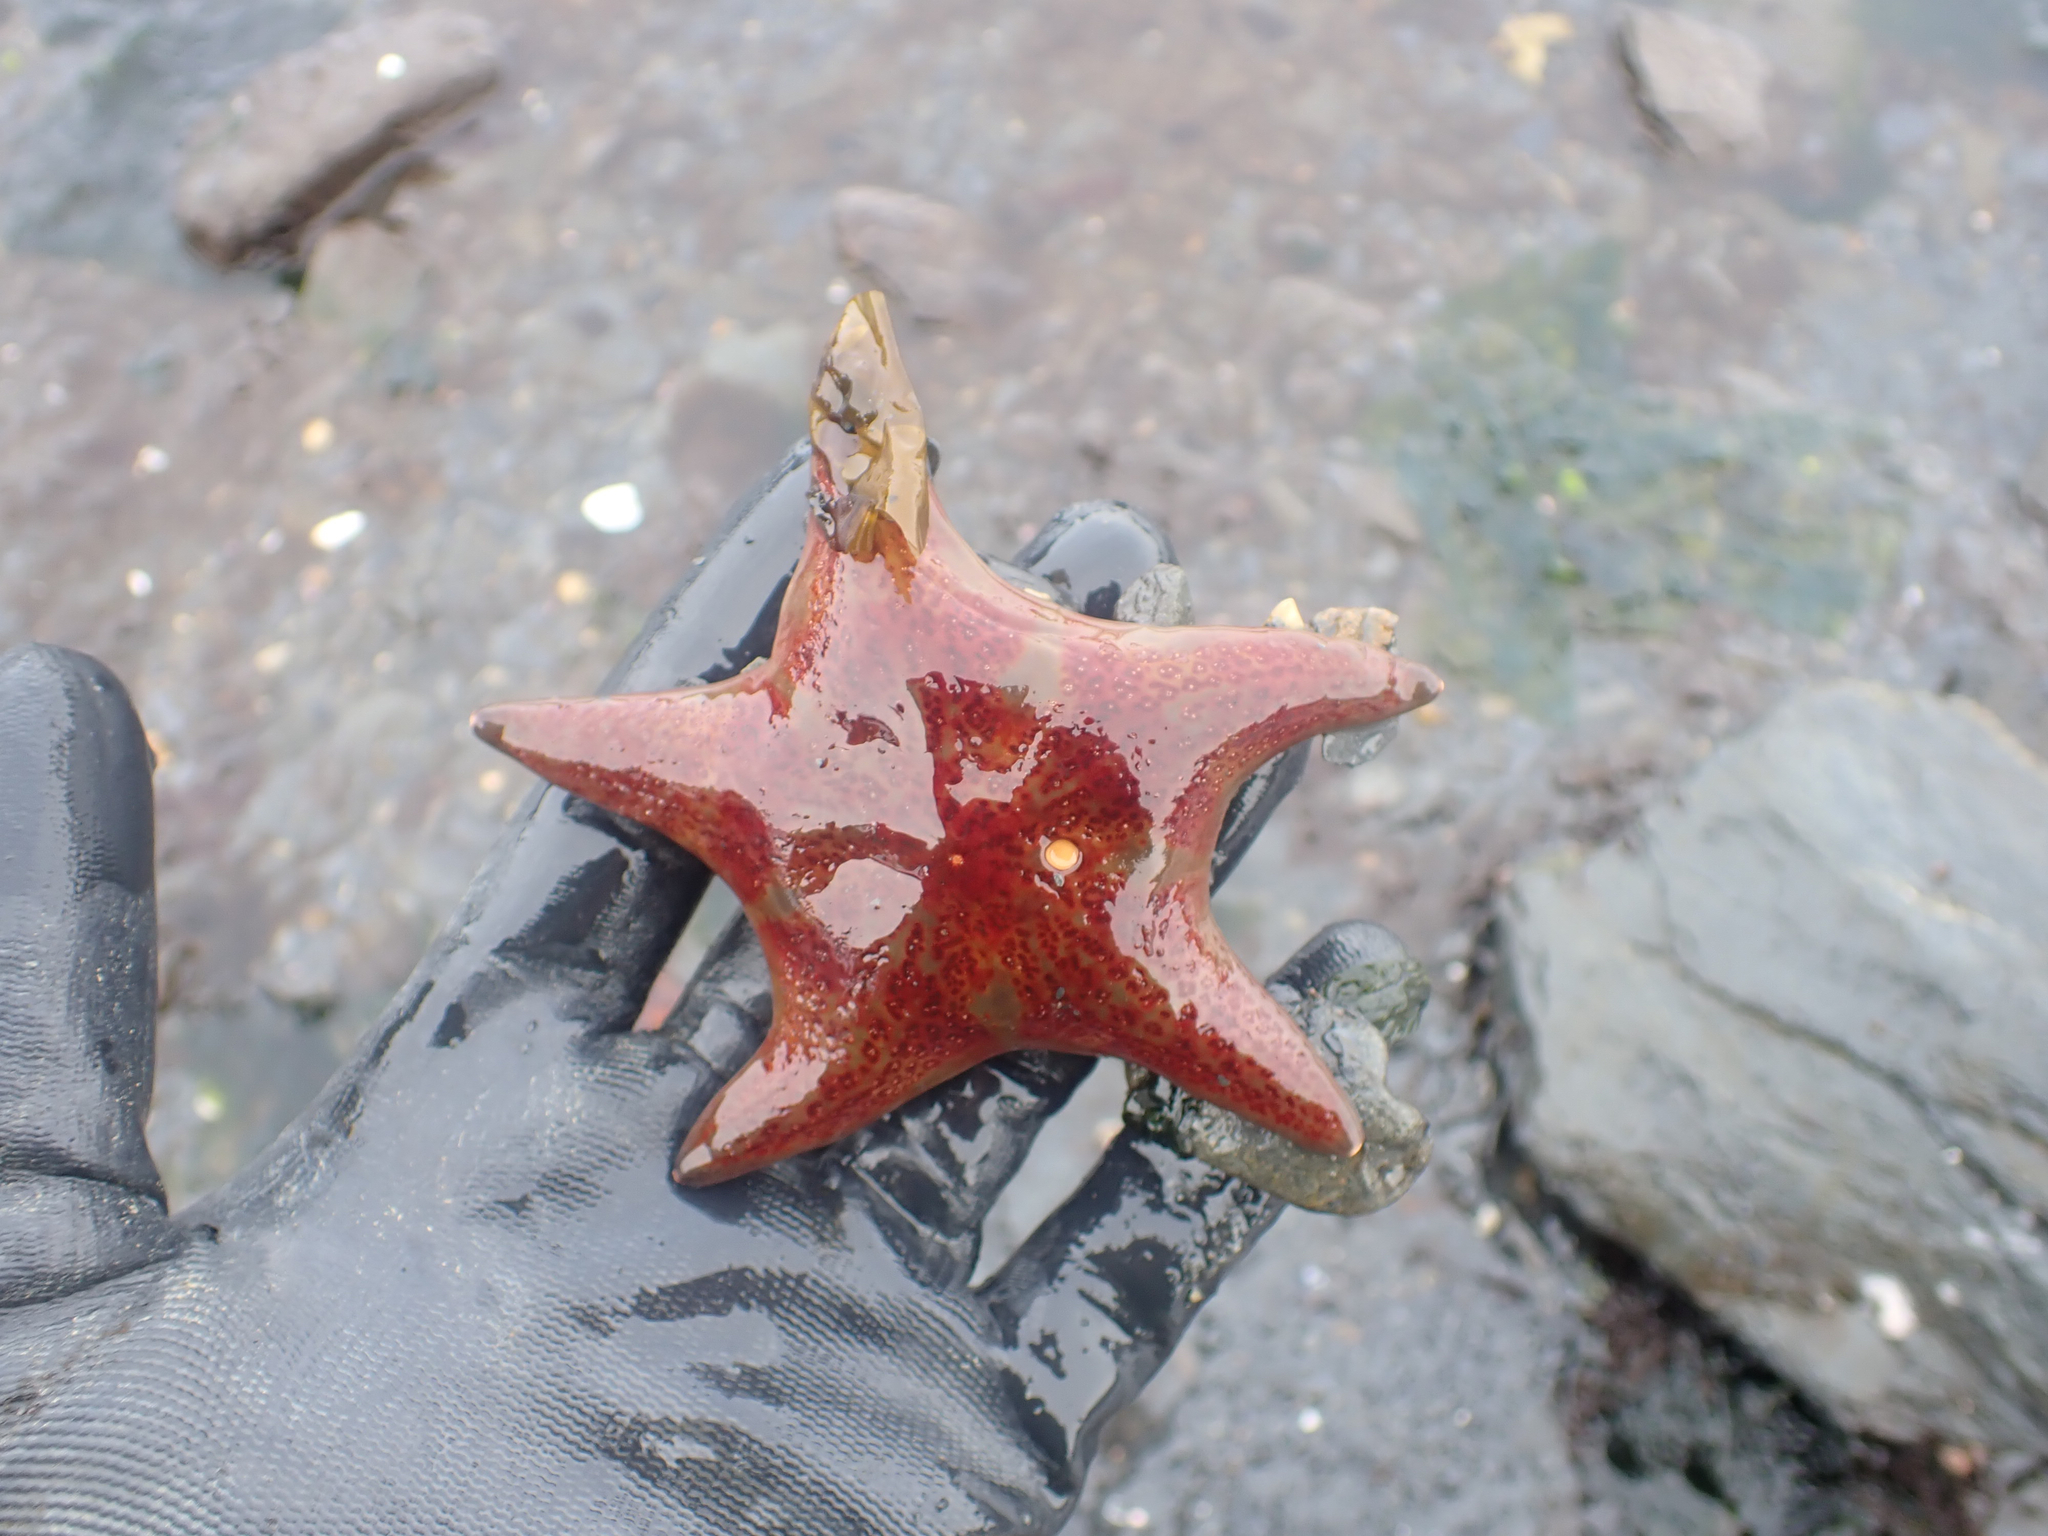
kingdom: Animalia
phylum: Echinodermata
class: Asteroidea
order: Valvatida
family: Asteropseidae
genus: Dermasterias
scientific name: Dermasterias imbricata
